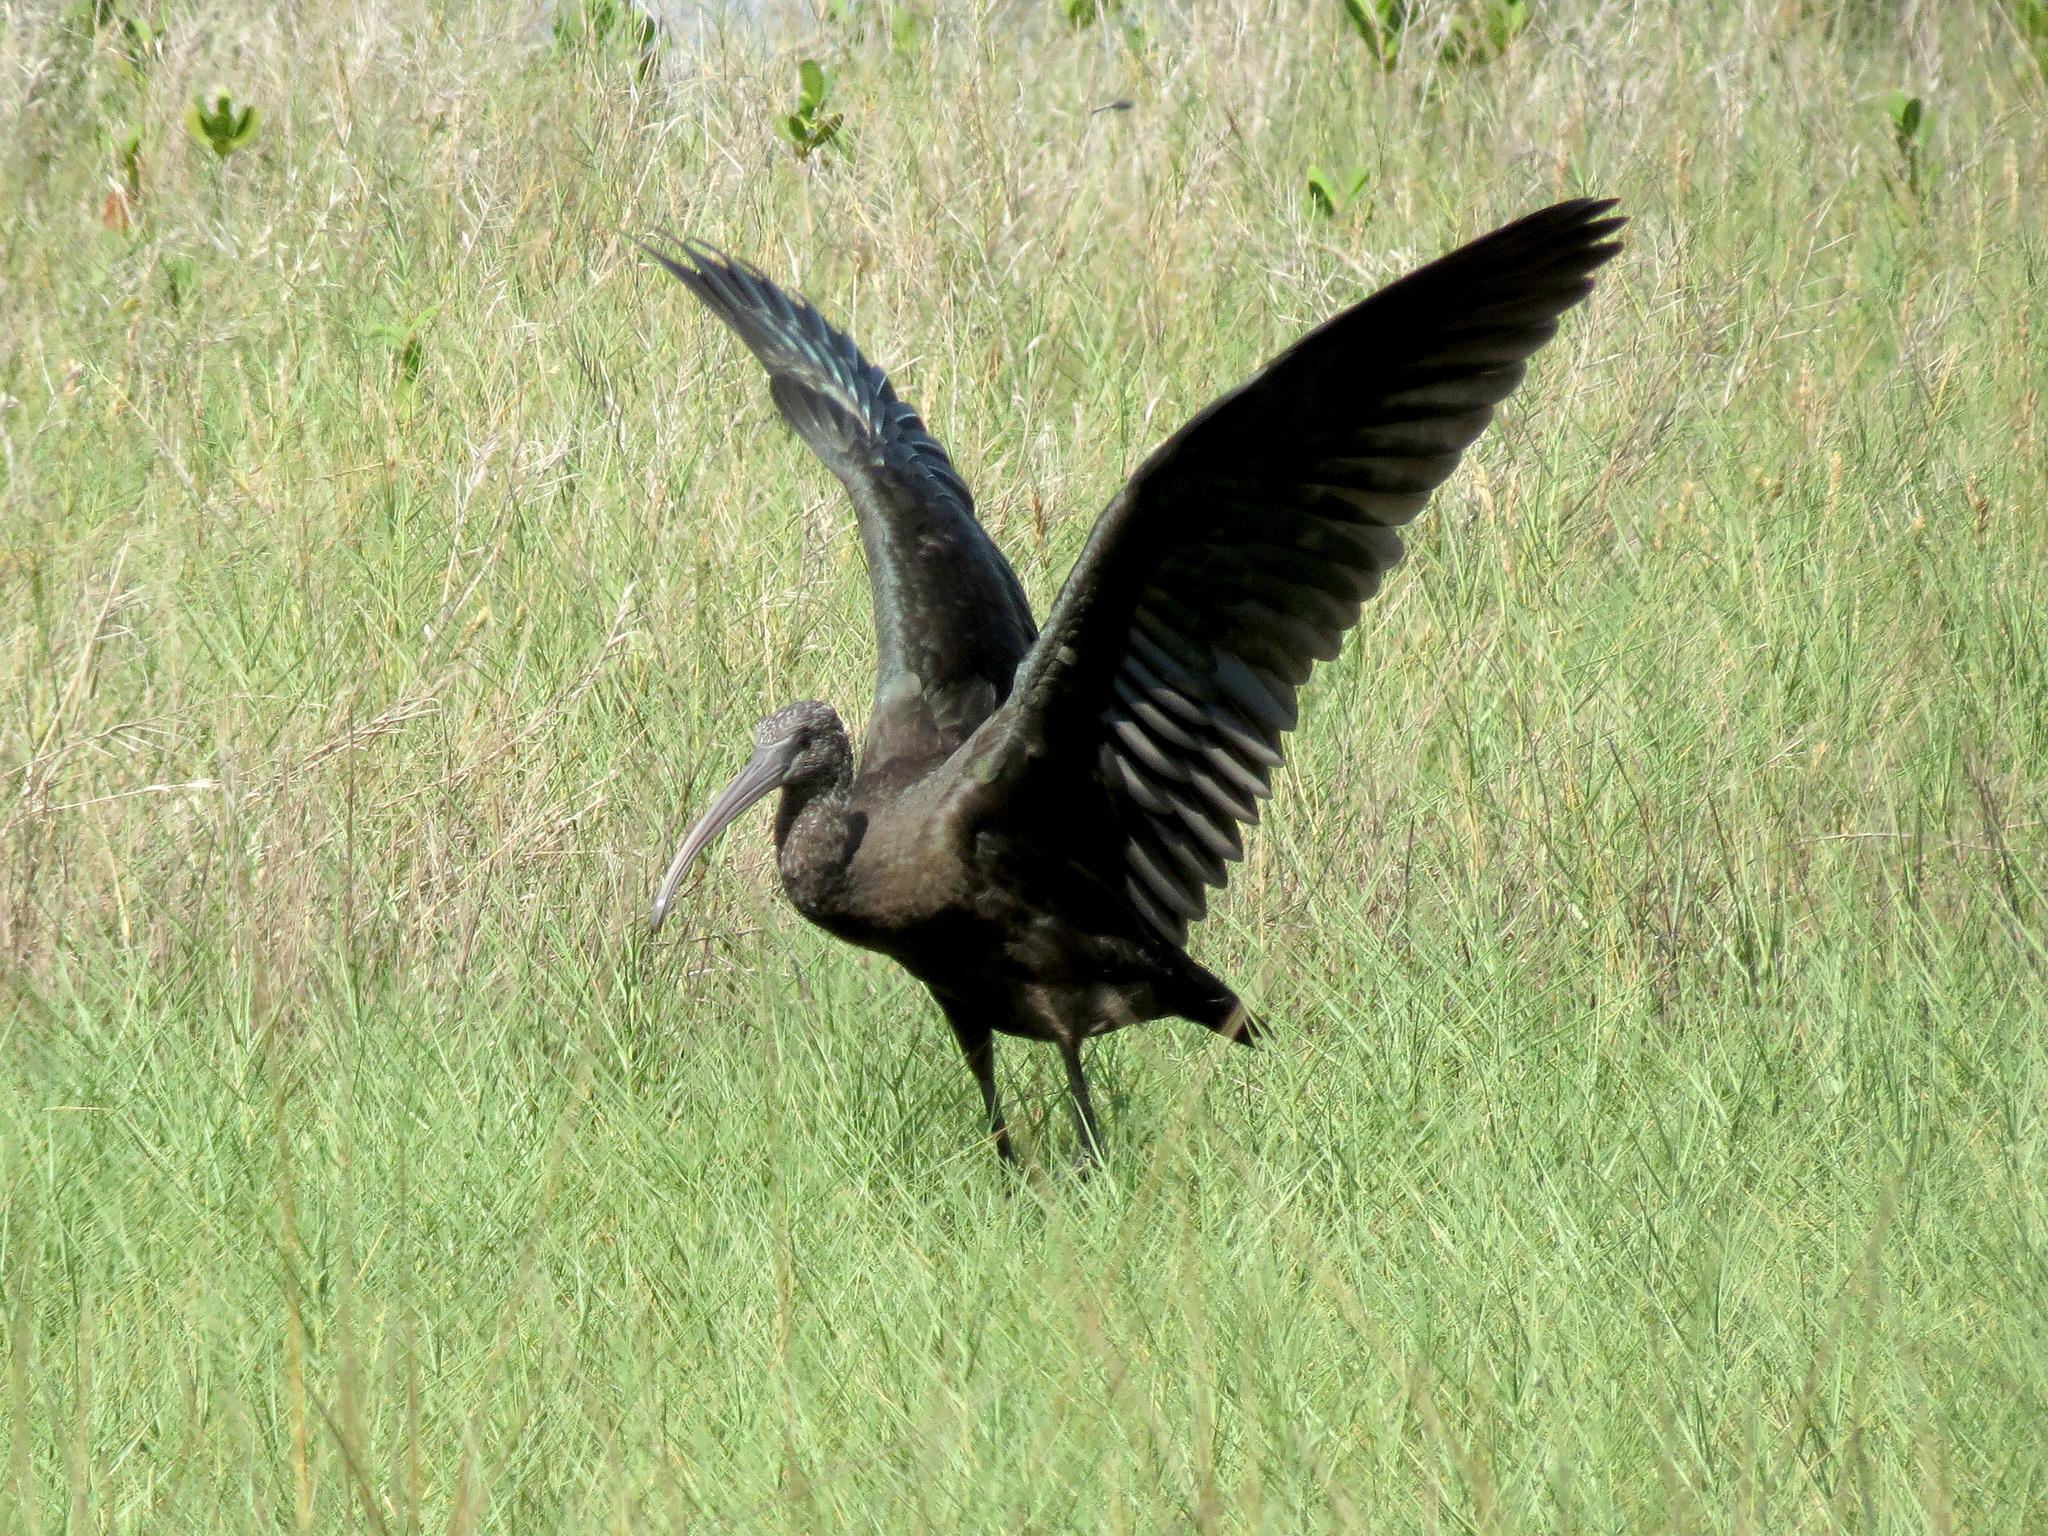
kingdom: Animalia
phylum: Chordata
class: Aves
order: Pelecaniformes
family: Threskiornithidae
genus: Plegadis
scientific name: Plegadis falcinellus
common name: Glossy ibis
